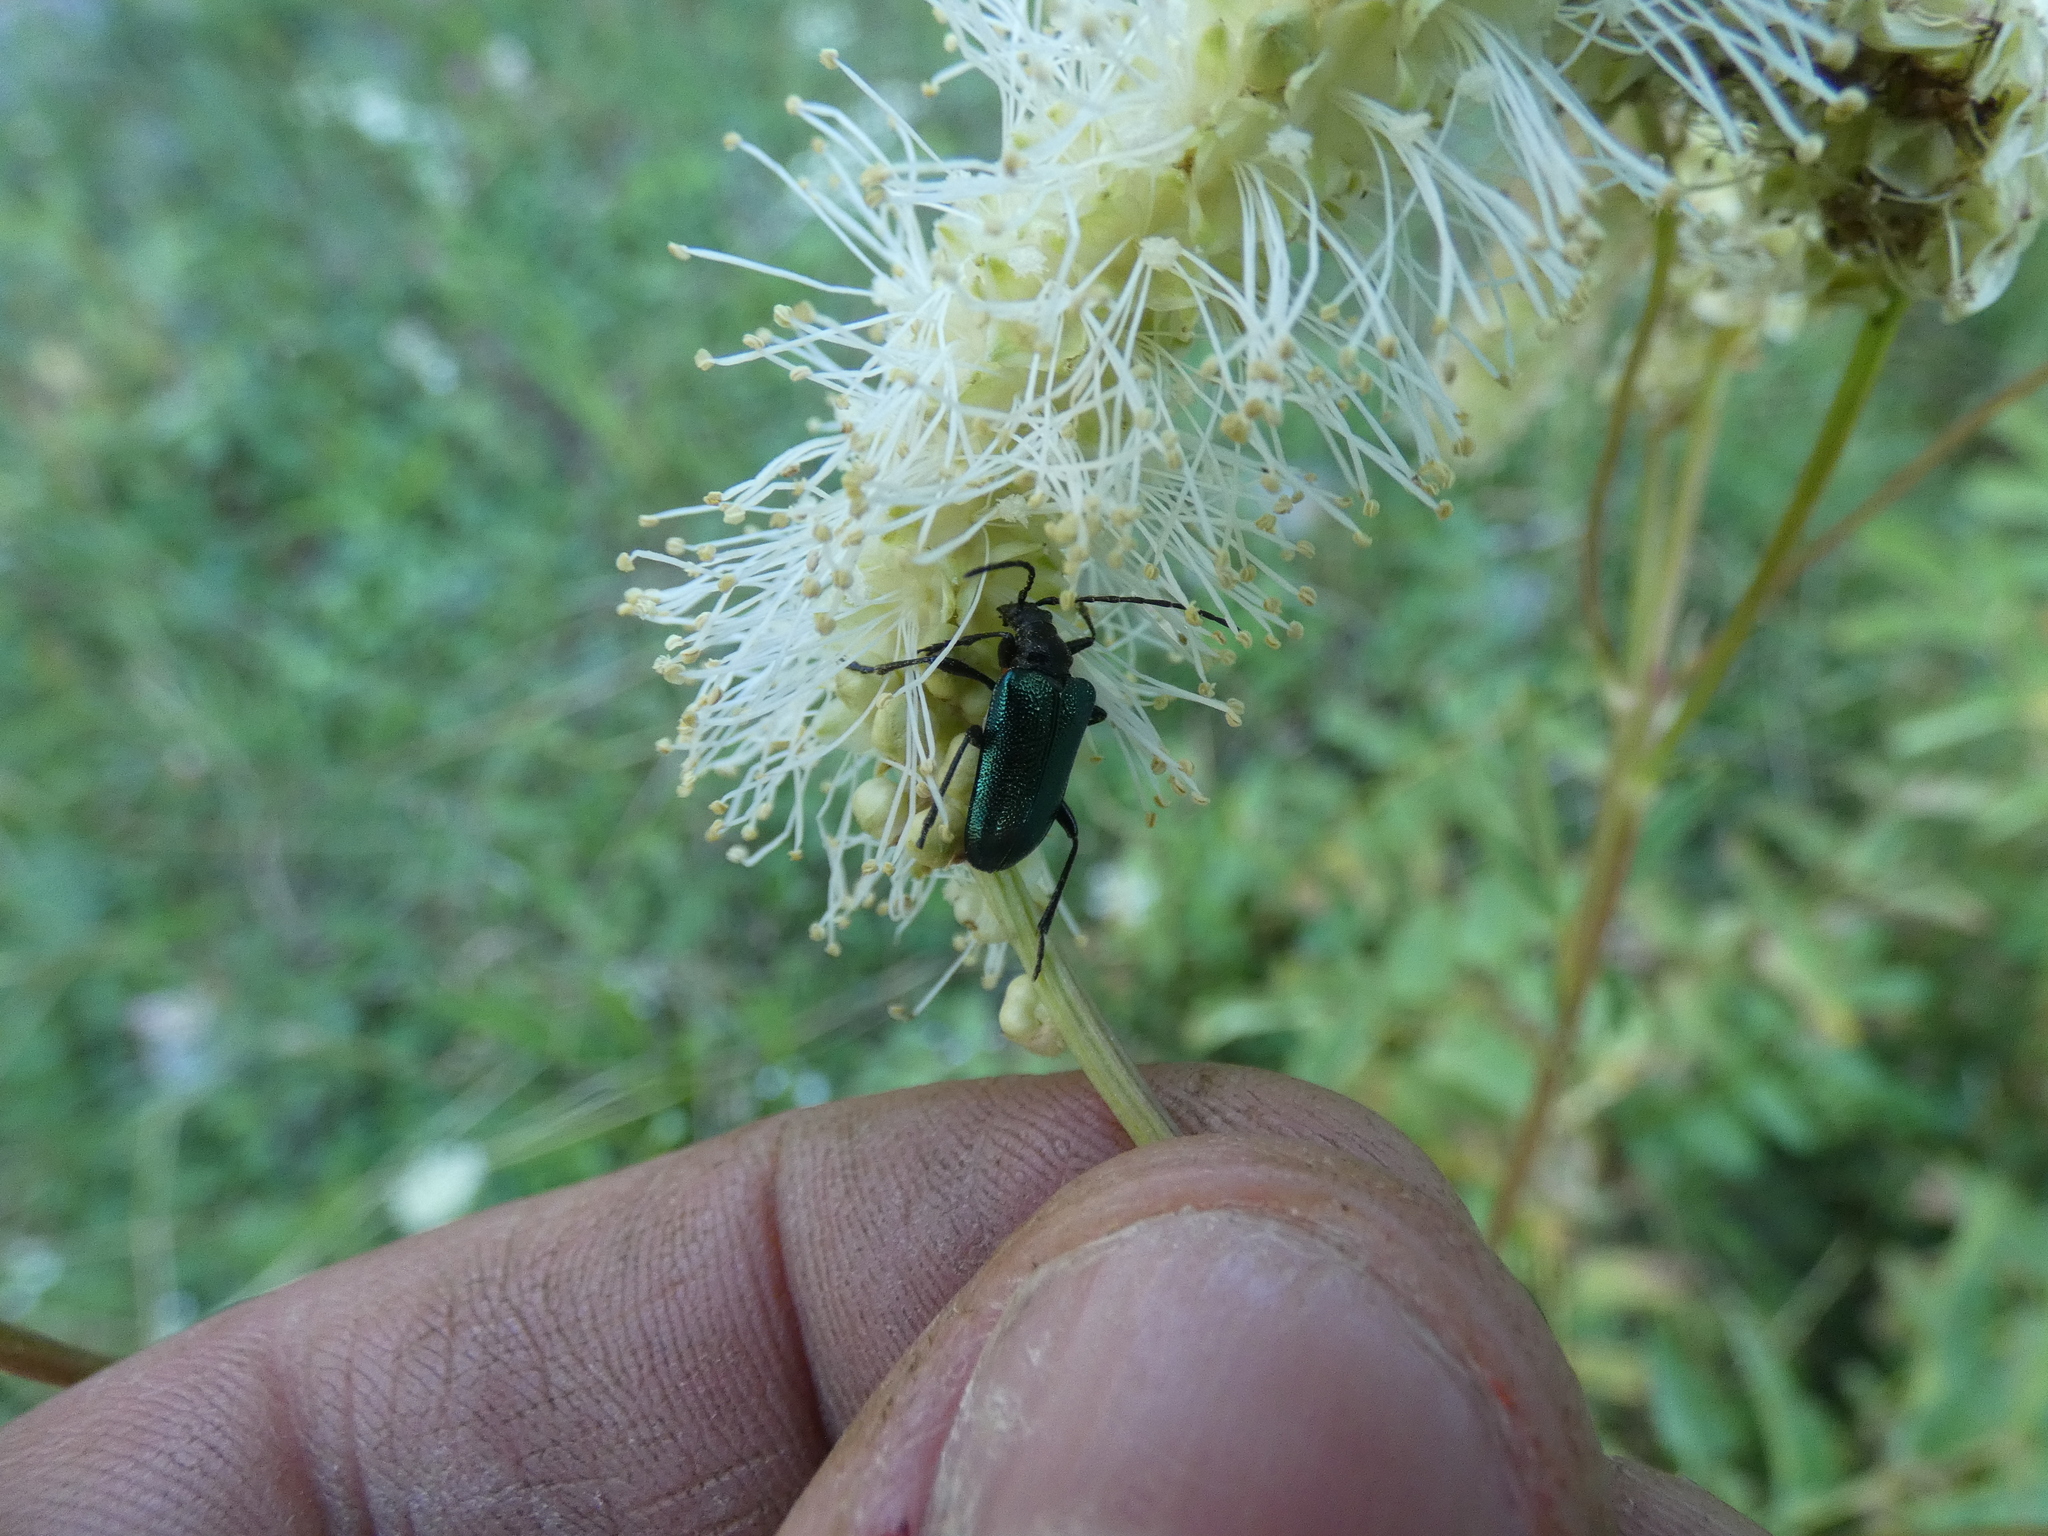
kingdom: Animalia
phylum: Arthropoda
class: Insecta
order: Coleoptera
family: Cerambycidae
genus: Gaurotes
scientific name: Gaurotes virginea
